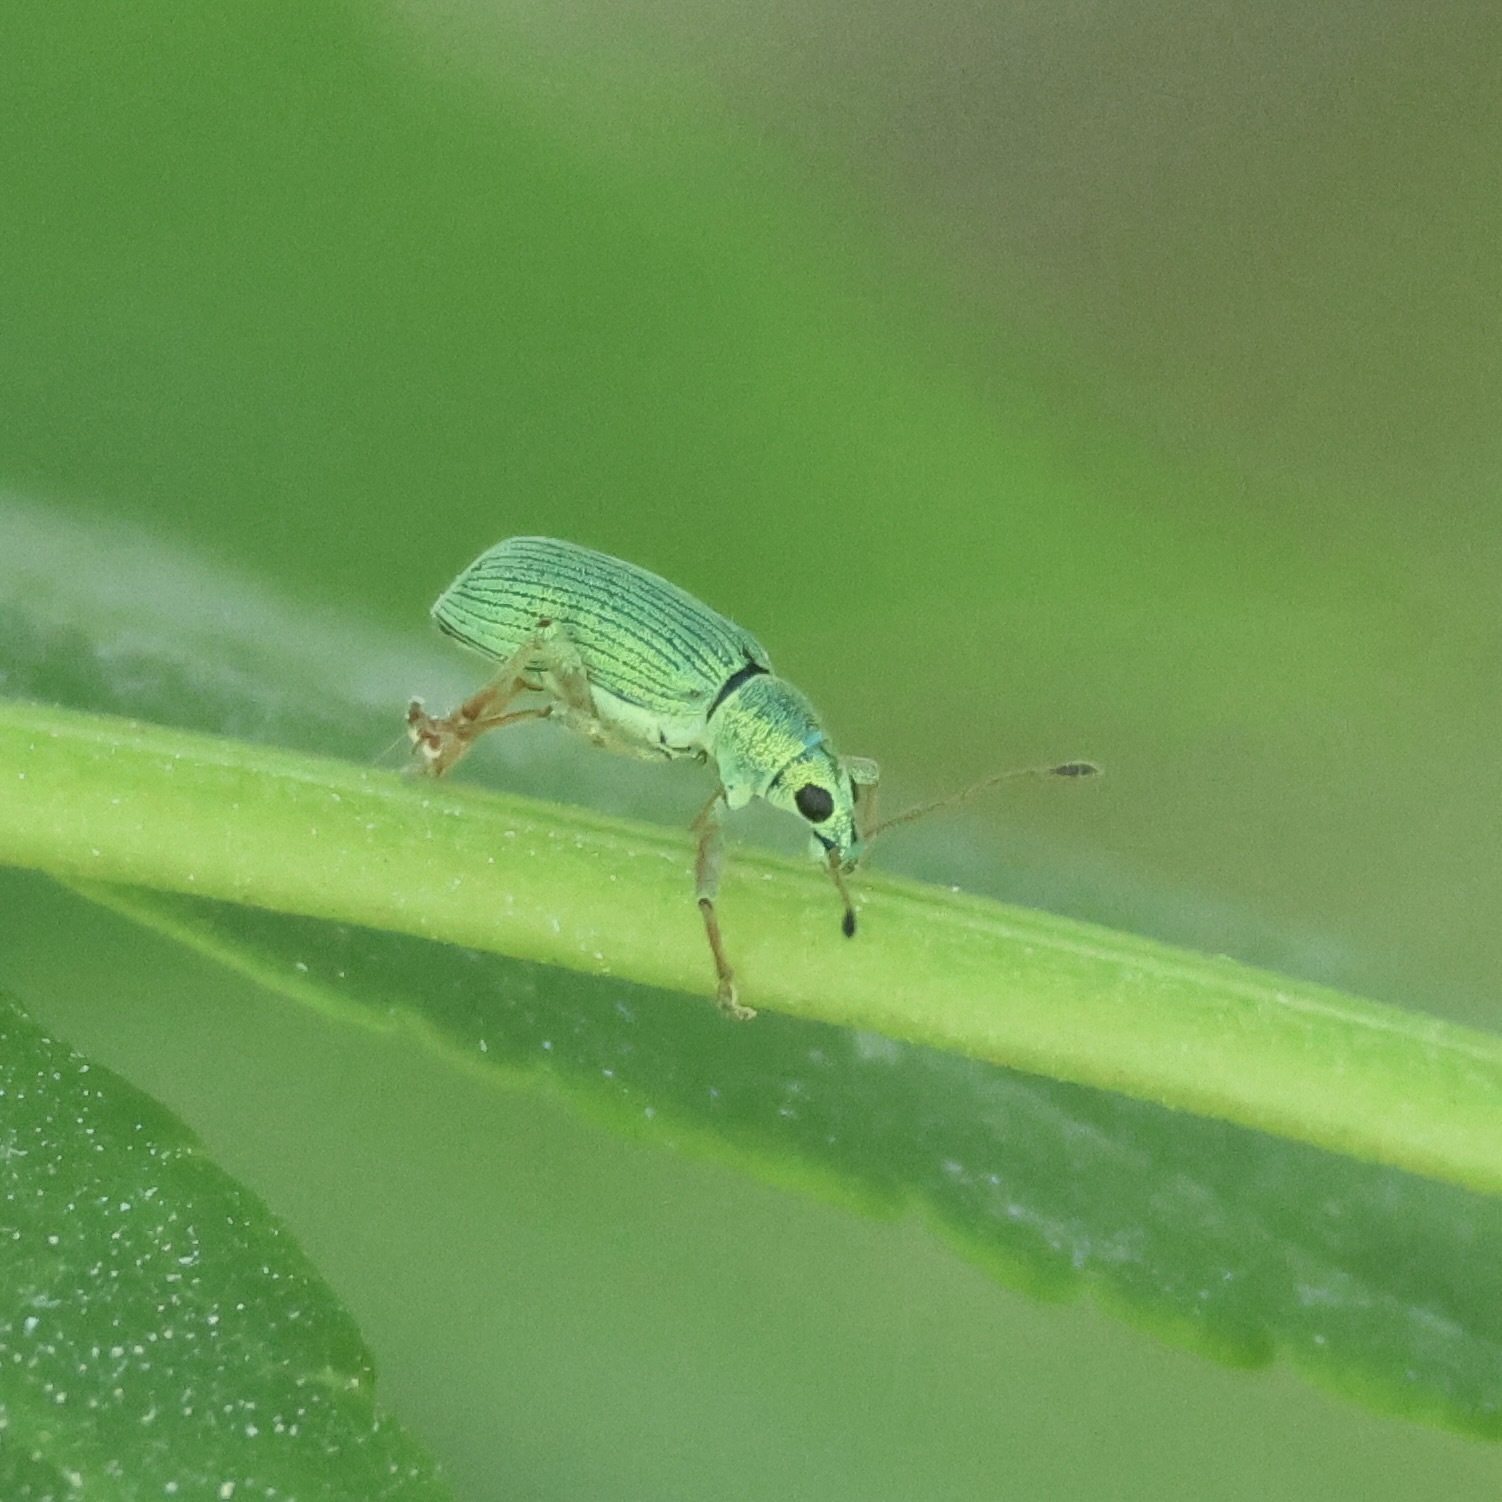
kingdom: Animalia
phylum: Arthropoda
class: Insecta
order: Coleoptera
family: Curculionidae
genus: Polydrusus
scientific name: Polydrusus formosus
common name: Weevil
